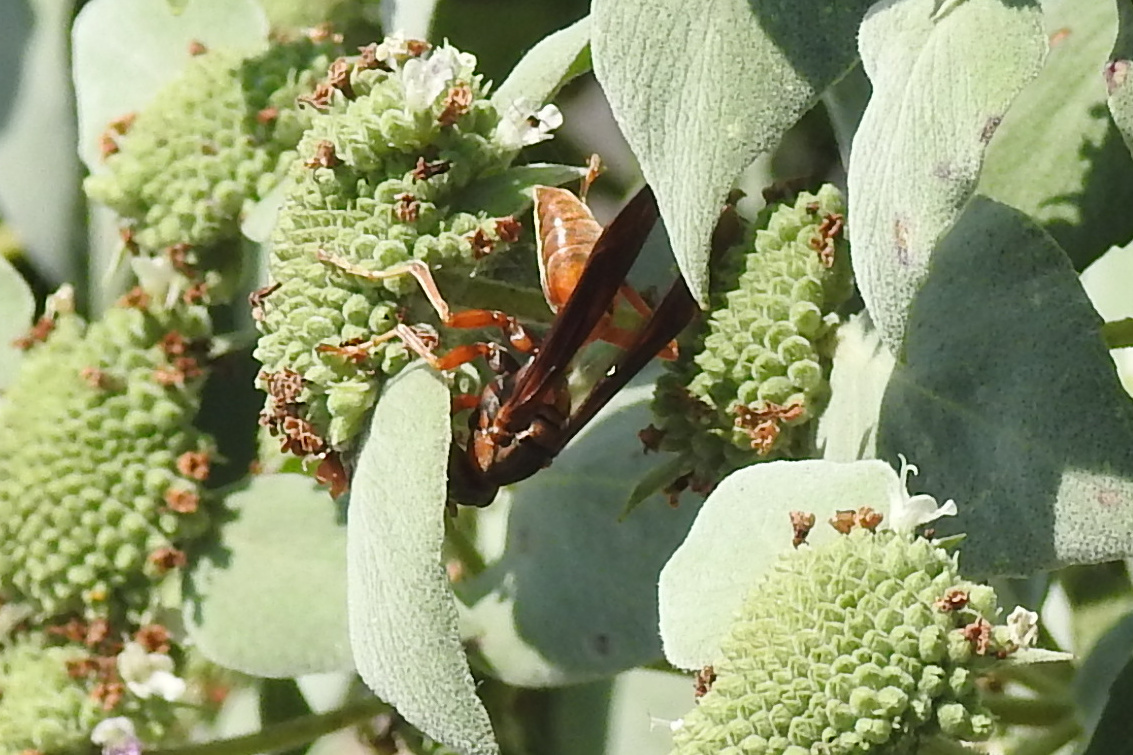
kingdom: Animalia
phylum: Arthropoda
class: Insecta
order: Hymenoptera
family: Eumenidae
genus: Polistes
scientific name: Polistes fuscatus
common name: Dark paper wasp
